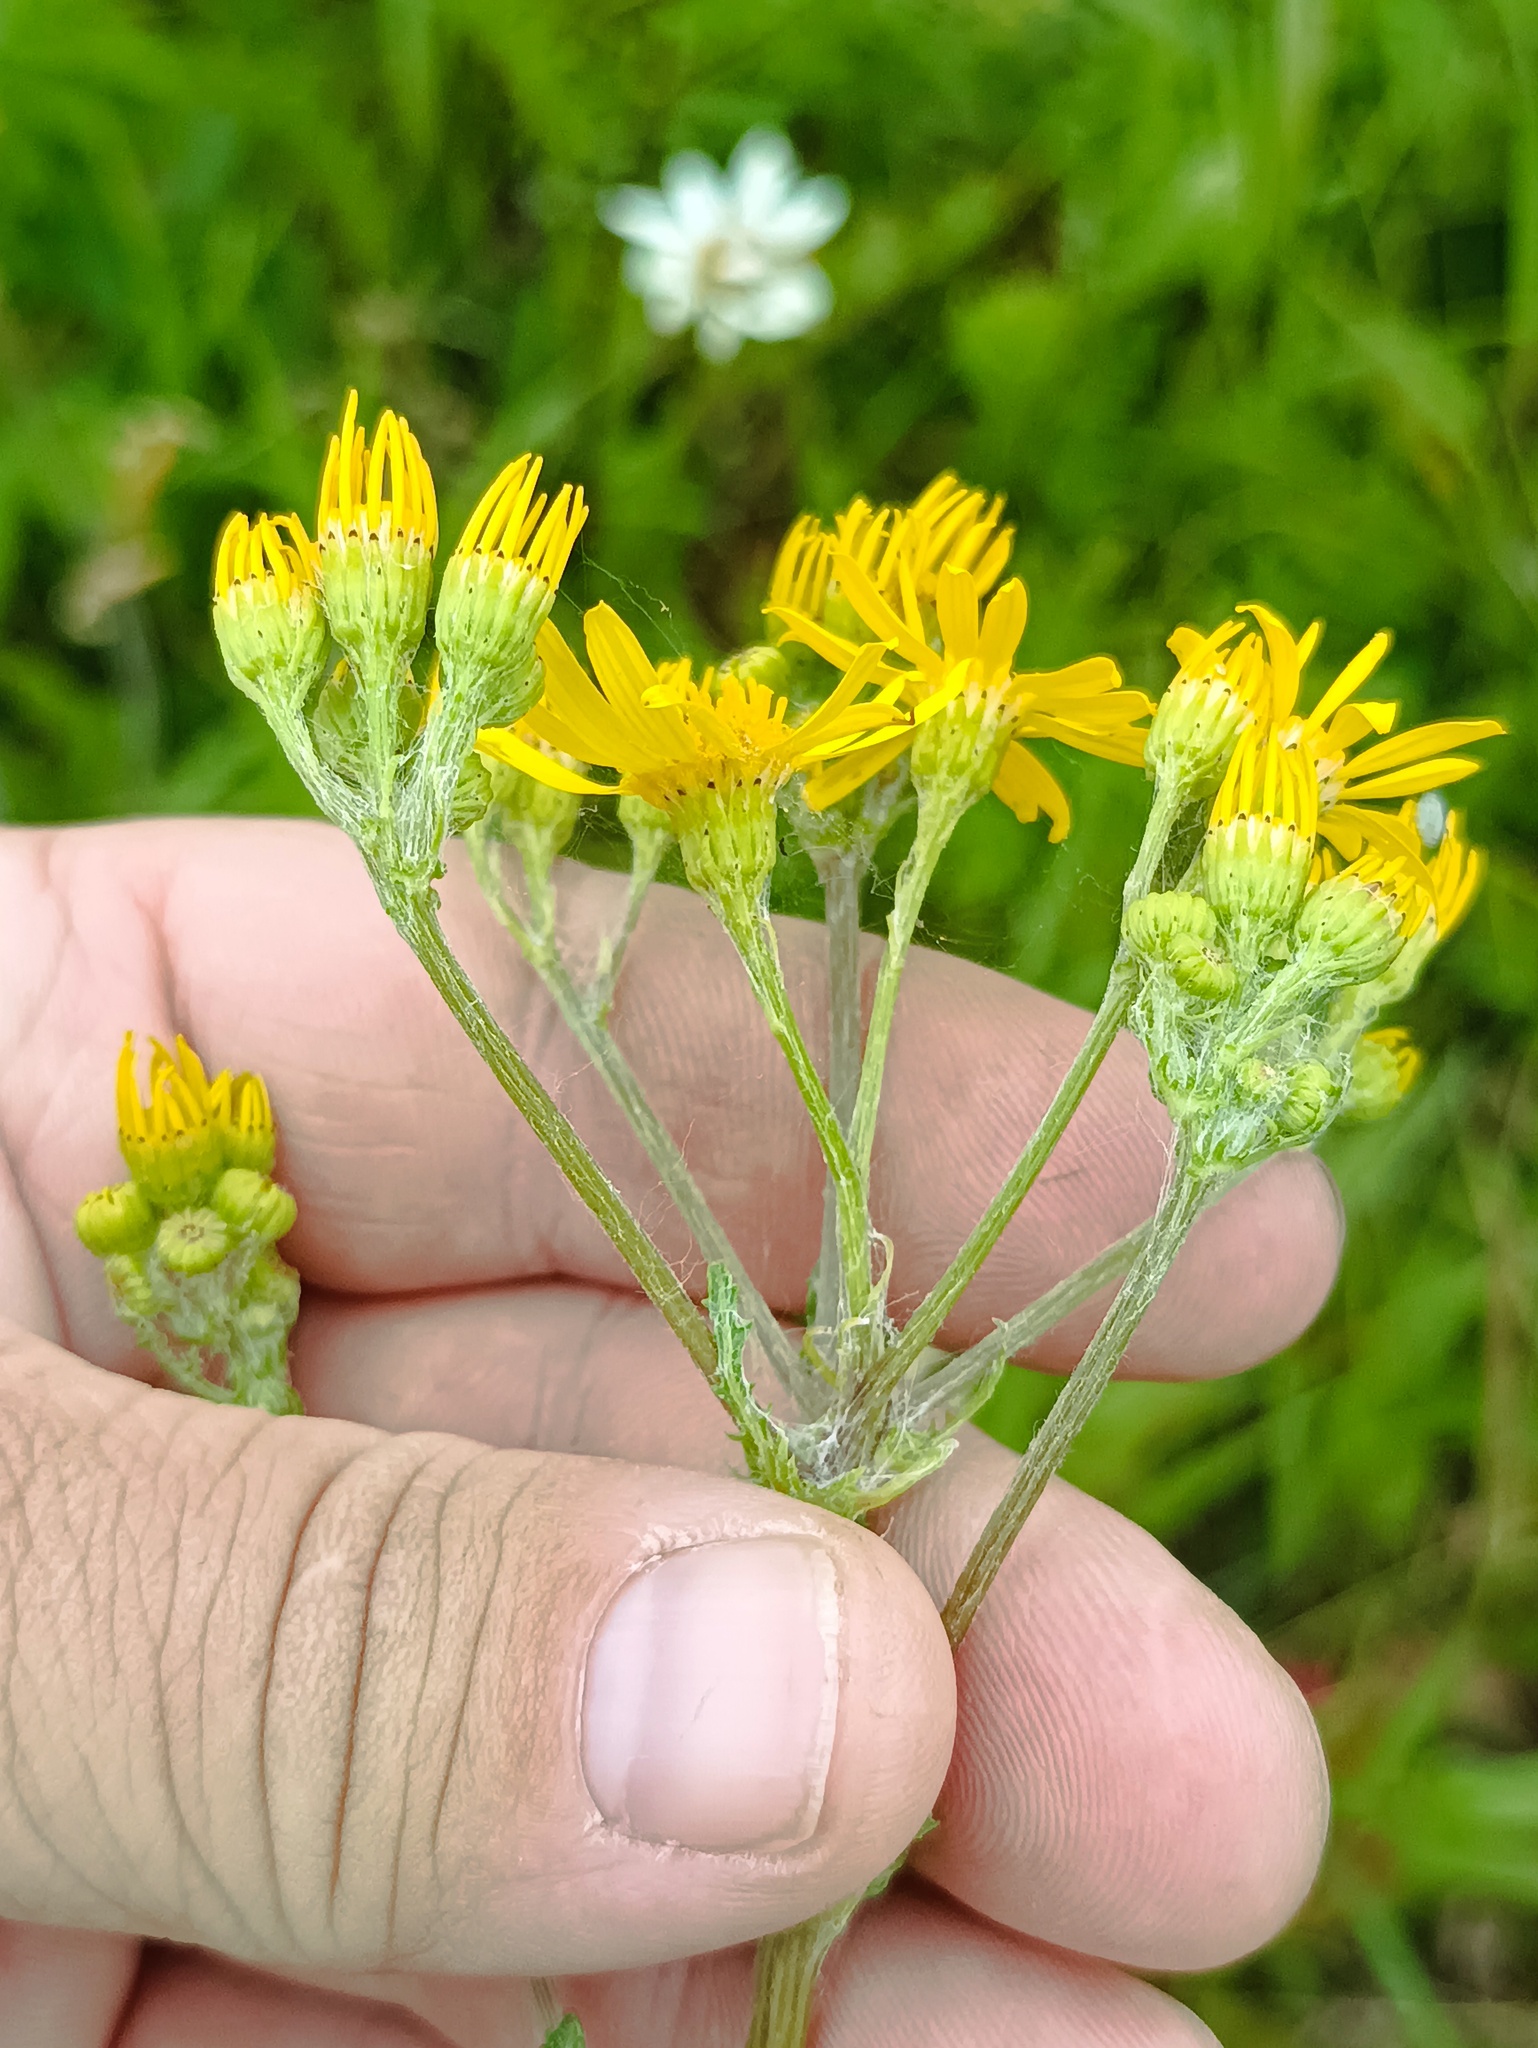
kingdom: Plantae
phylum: Tracheophyta
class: Magnoliopsida
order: Asterales
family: Asteraceae
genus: Jacobaea
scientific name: Jacobaea vulgaris
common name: Stinking willie
